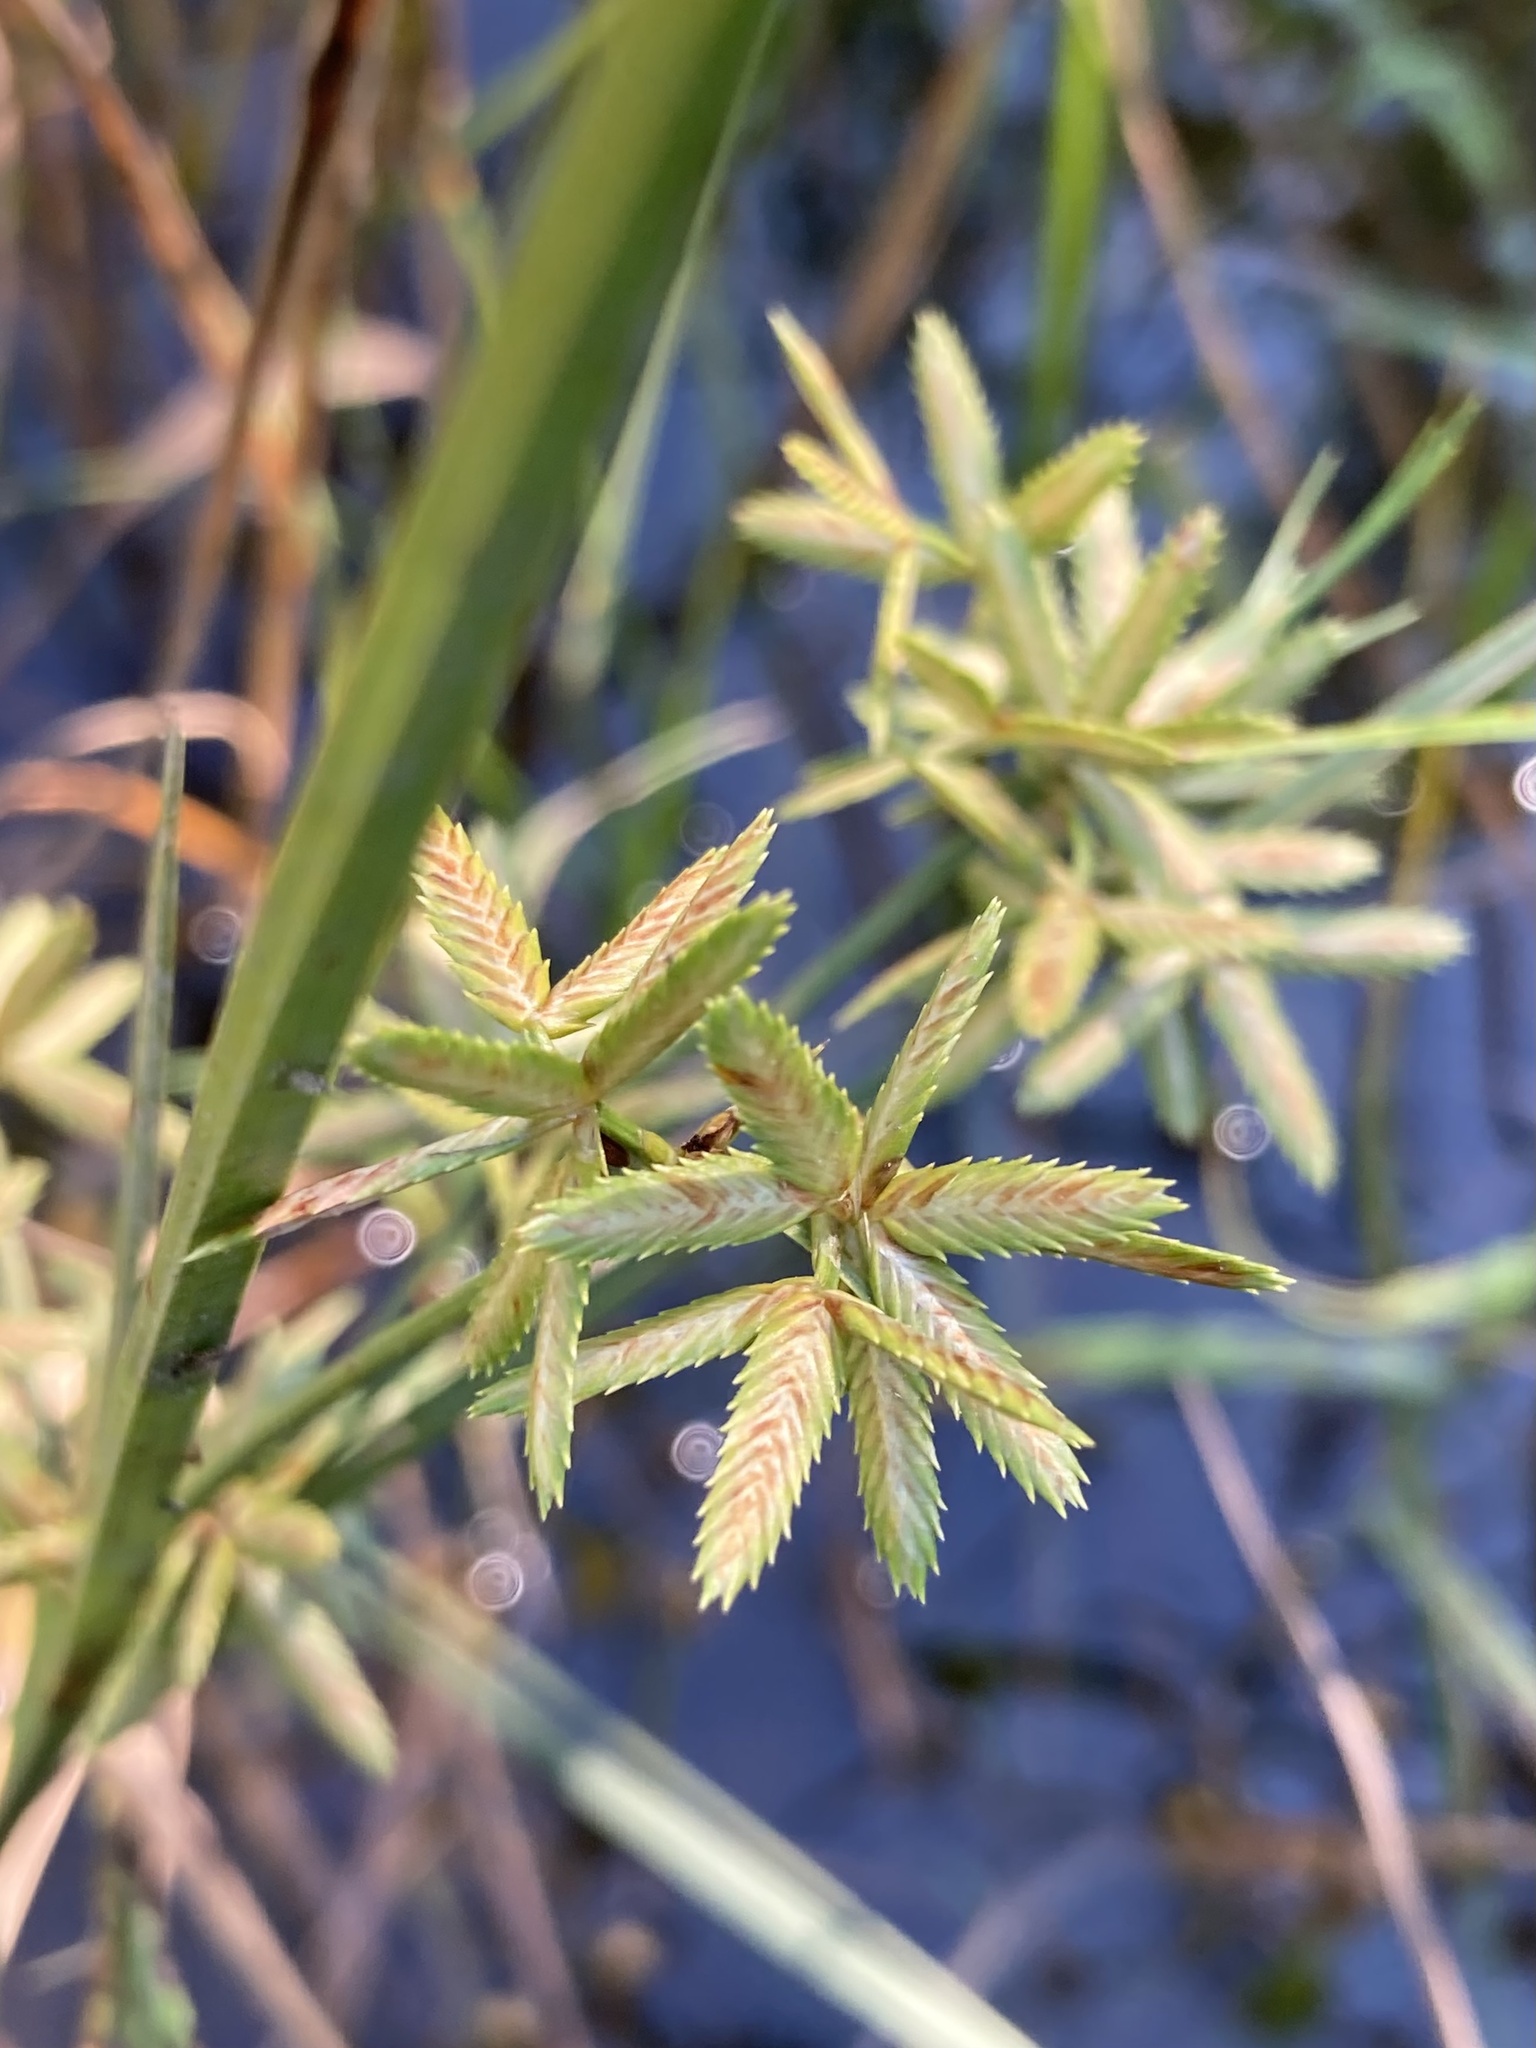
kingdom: Plantae
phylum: Tracheophyta
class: Liliopsida
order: Poales
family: Cyperaceae
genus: Cyperus
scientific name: Cyperus dentatus
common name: Dentate umbrella sedge
